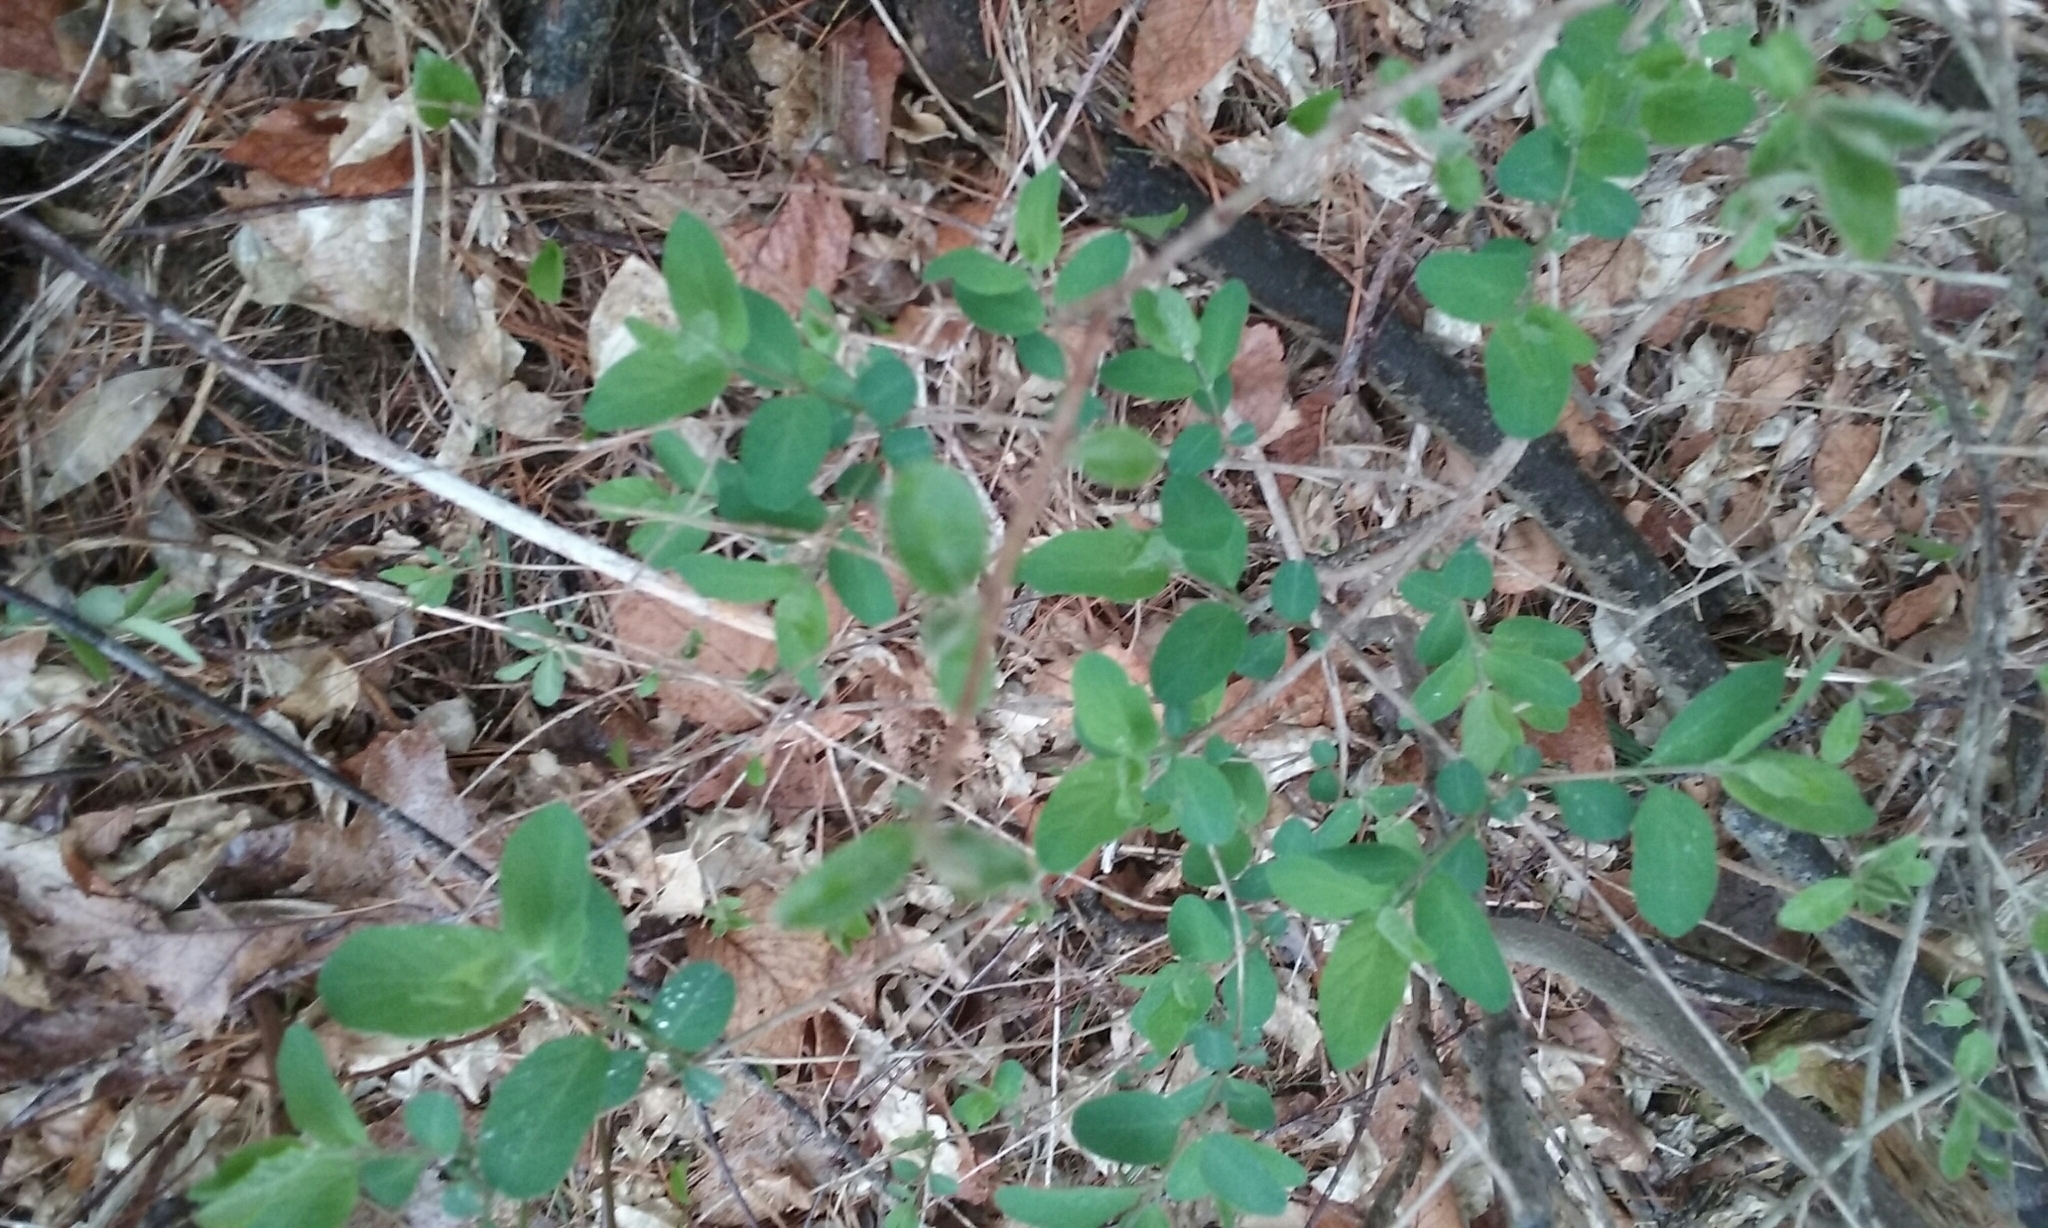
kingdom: Plantae
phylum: Tracheophyta
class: Magnoliopsida
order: Dipsacales
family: Caprifoliaceae
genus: Lonicera
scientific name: Lonicera
